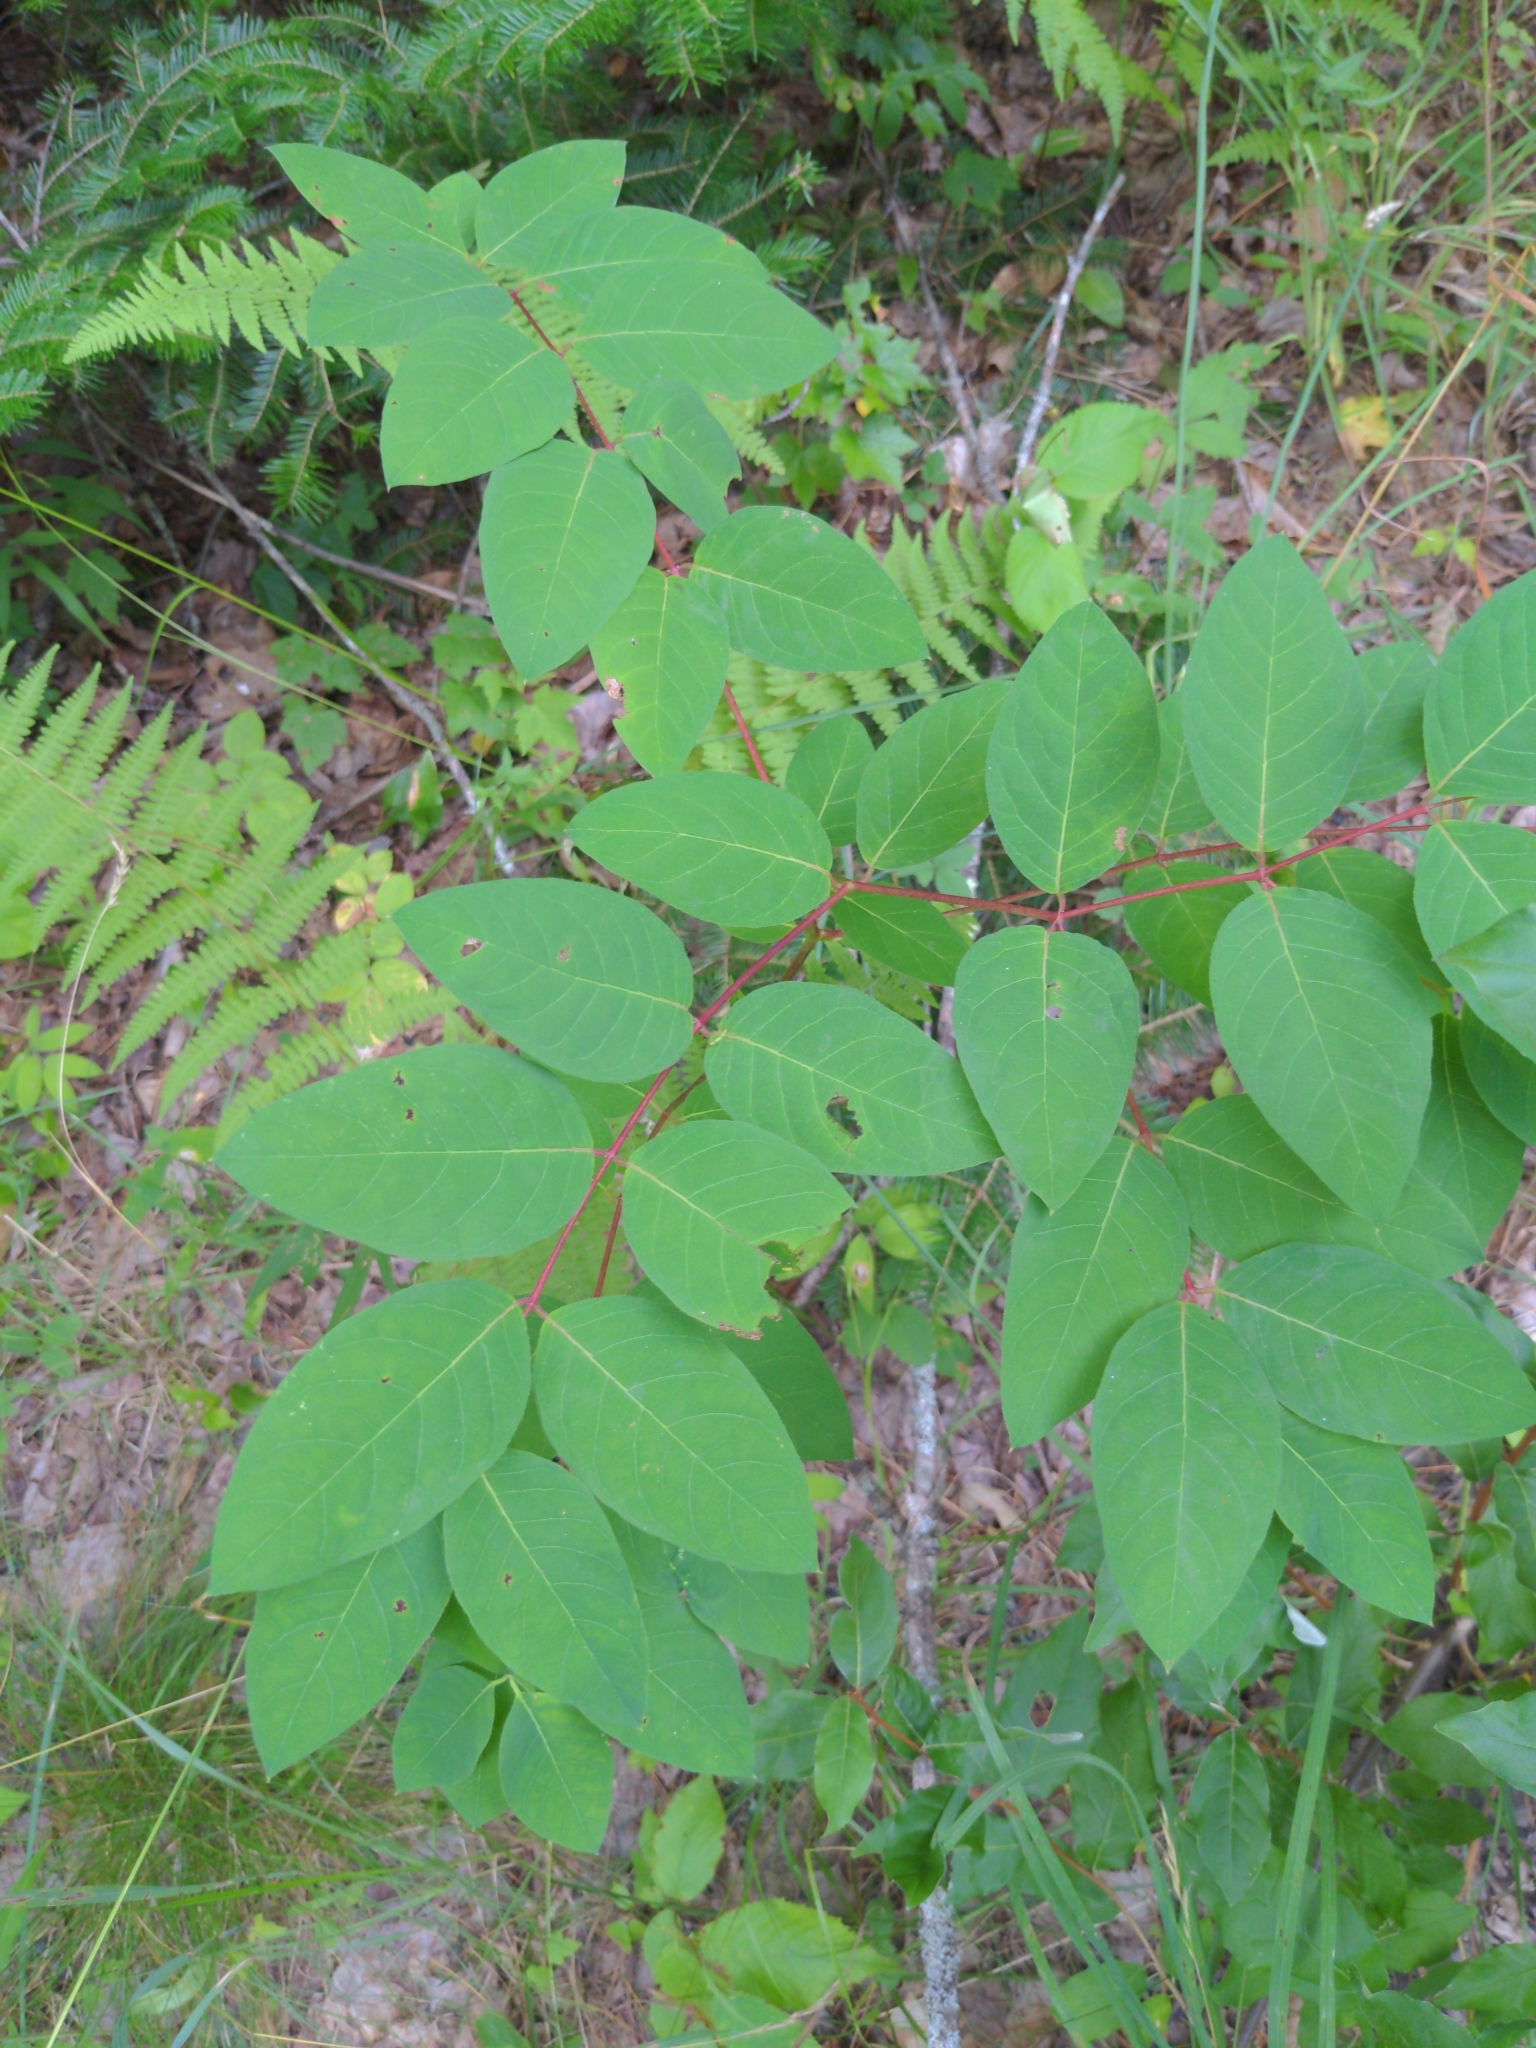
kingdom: Plantae
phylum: Tracheophyta
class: Magnoliopsida
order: Gentianales
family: Apocynaceae
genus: Apocynum
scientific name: Apocynum androsaemifolium
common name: Spreading dogbane
